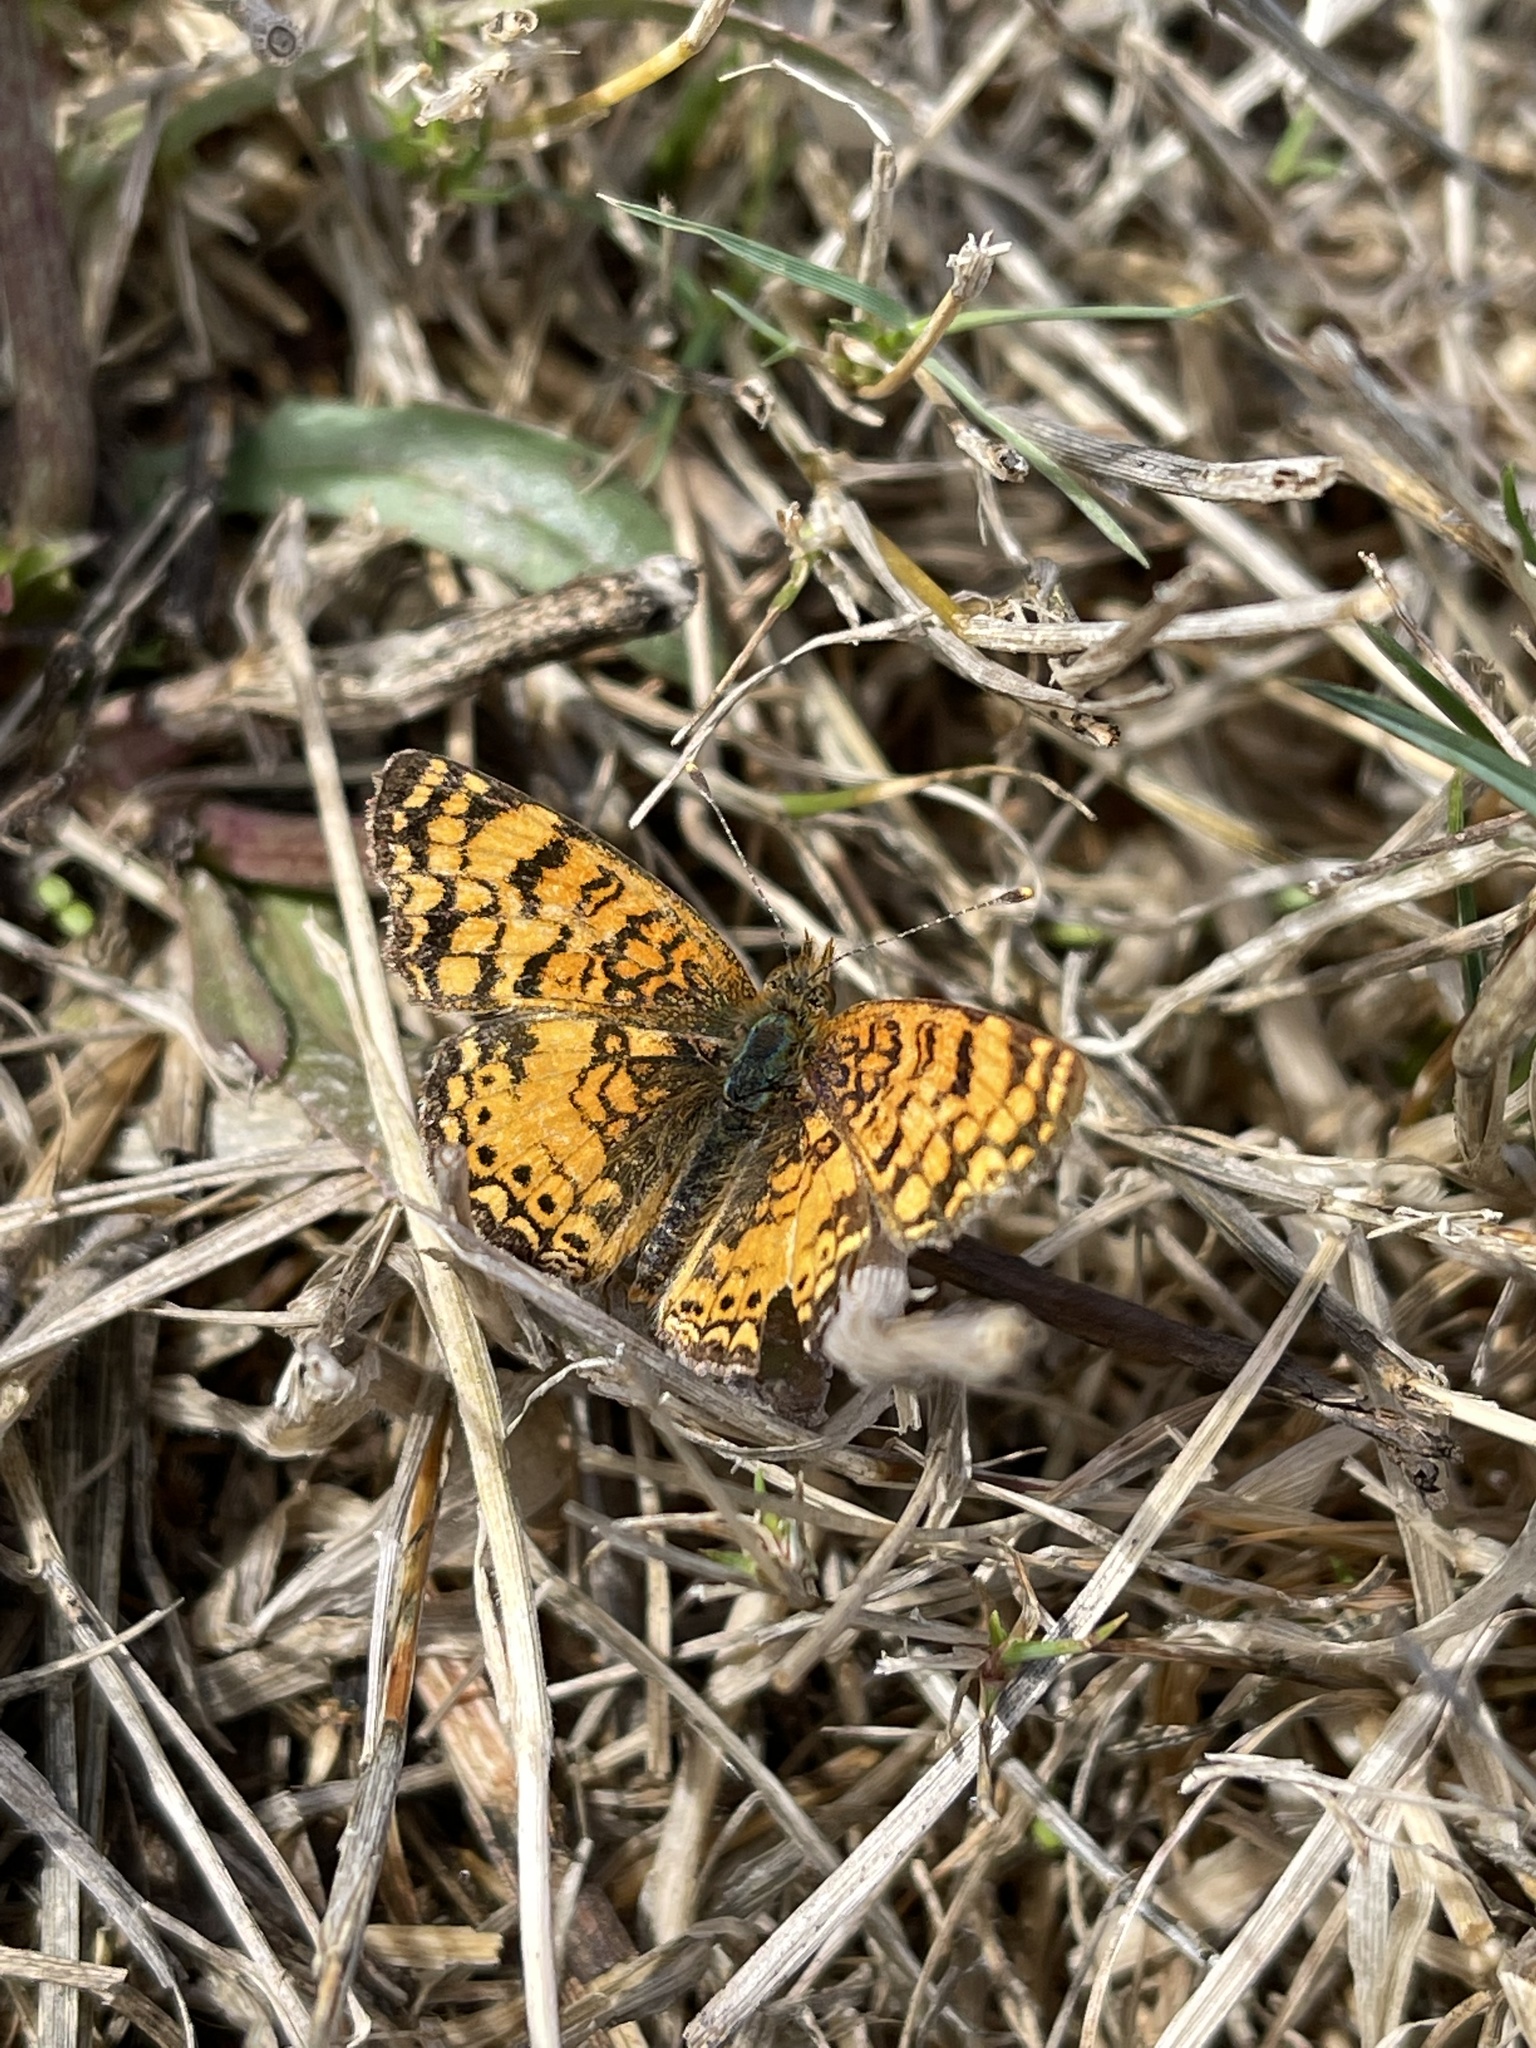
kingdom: Animalia
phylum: Arthropoda
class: Insecta
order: Lepidoptera
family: Nymphalidae
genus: Eresia
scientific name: Eresia aveyrona
